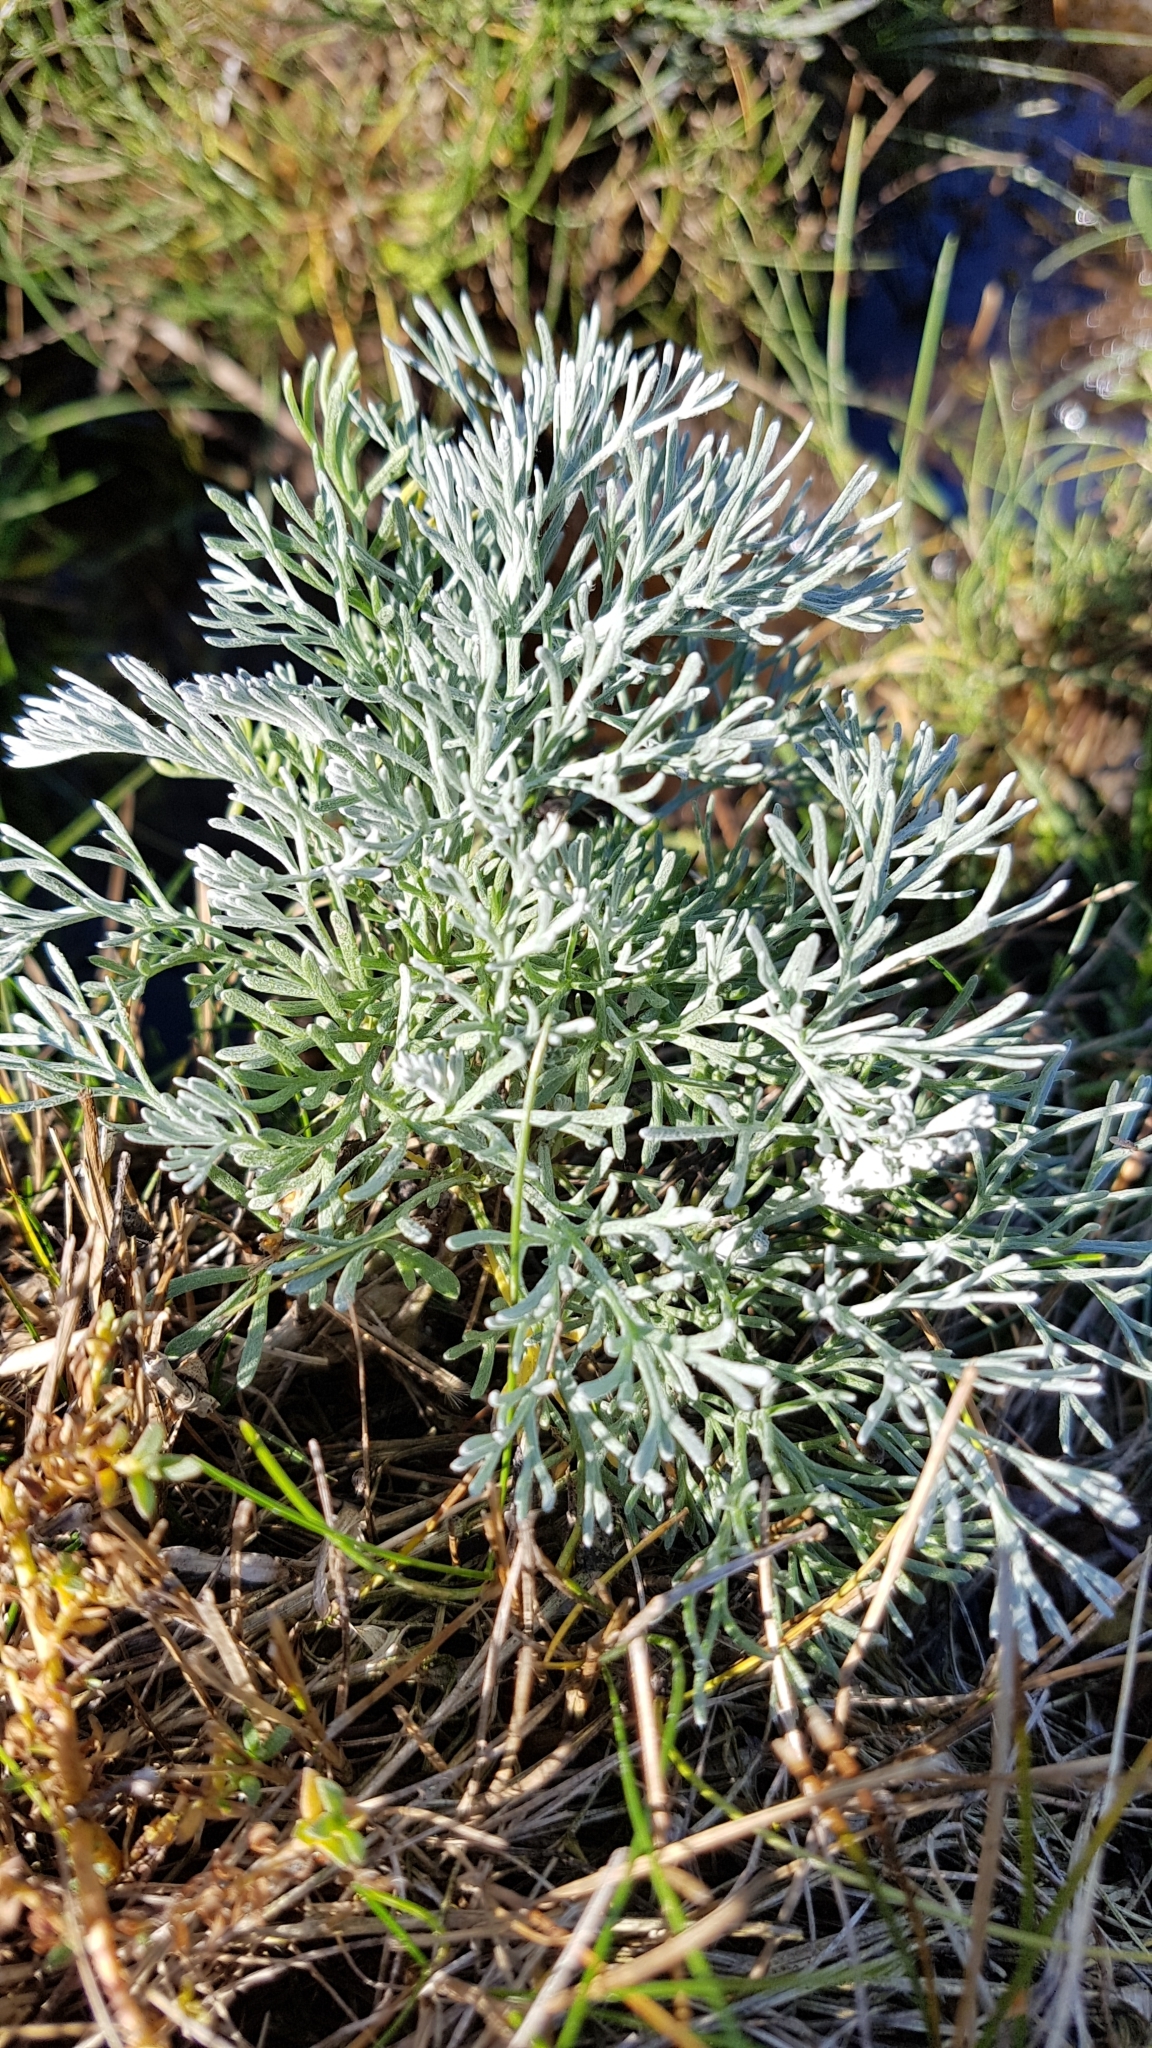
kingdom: Plantae
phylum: Tracheophyta
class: Magnoliopsida
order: Asterales
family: Asteraceae
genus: Artemisia
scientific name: Artemisia maritima
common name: Wormseed
